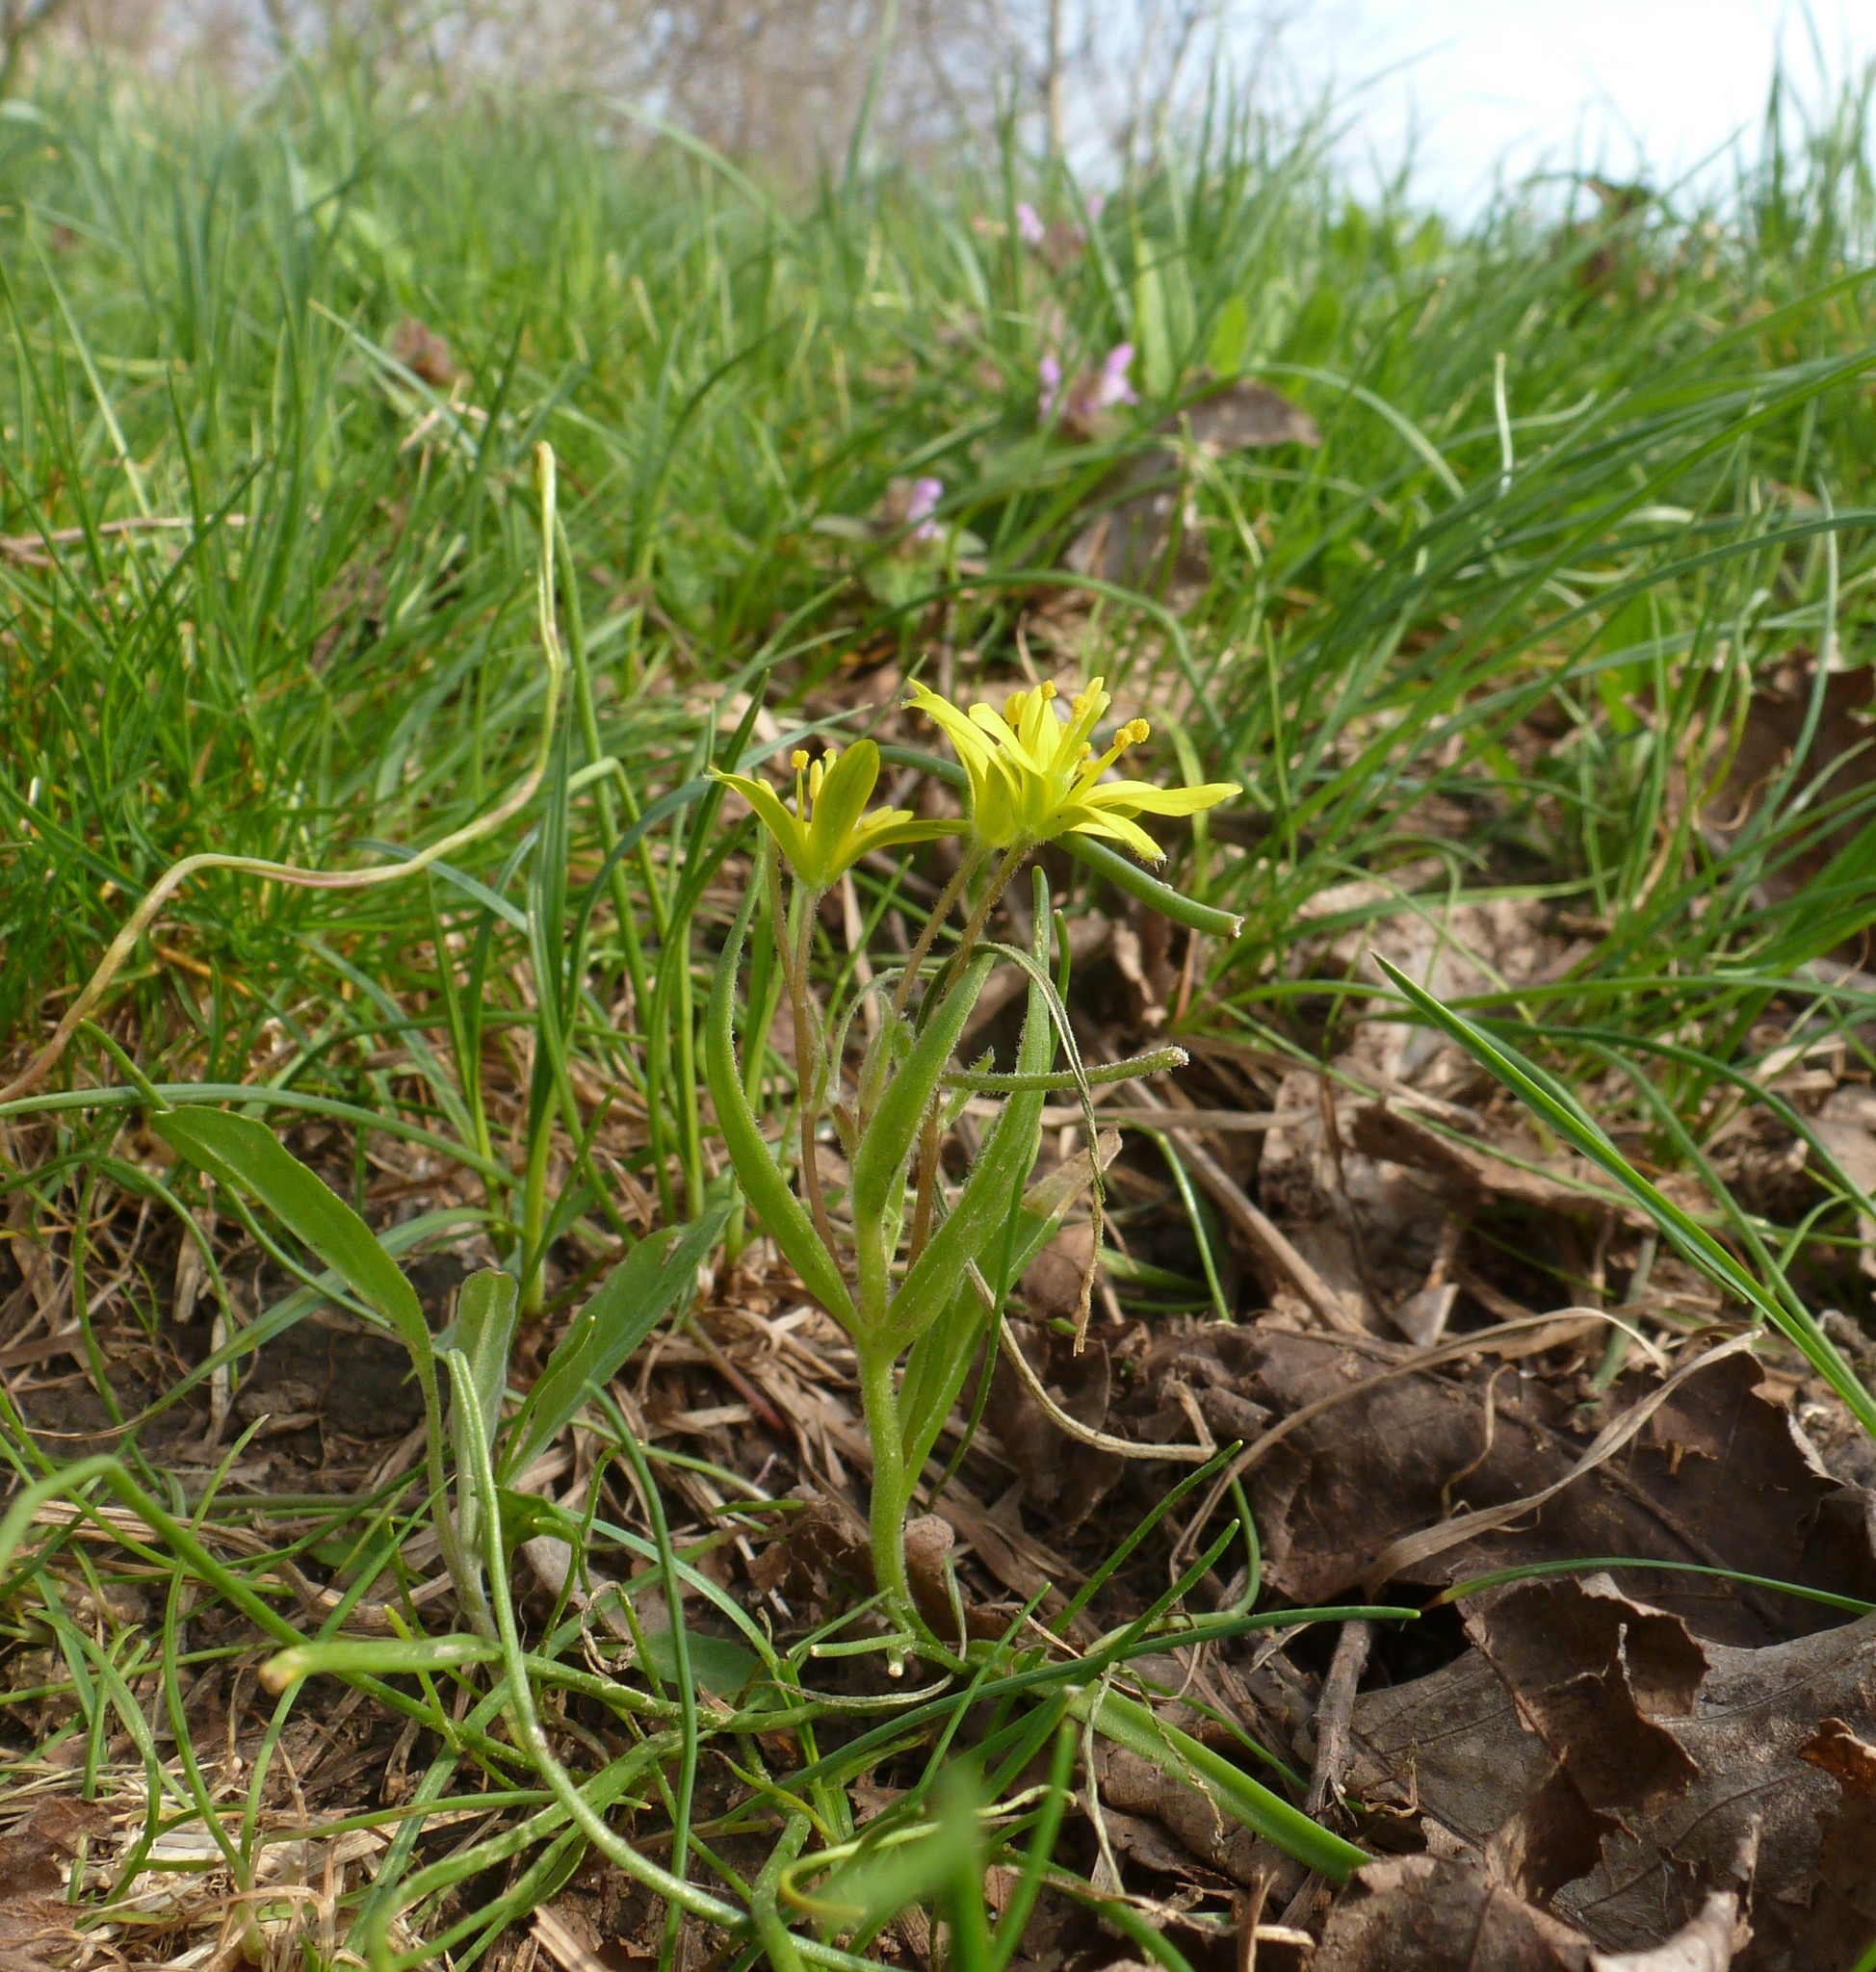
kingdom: Plantae
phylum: Tracheophyta
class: Liliopsida
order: Liliales
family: Liliaceae
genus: Gagea
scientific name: Gagea villosa
